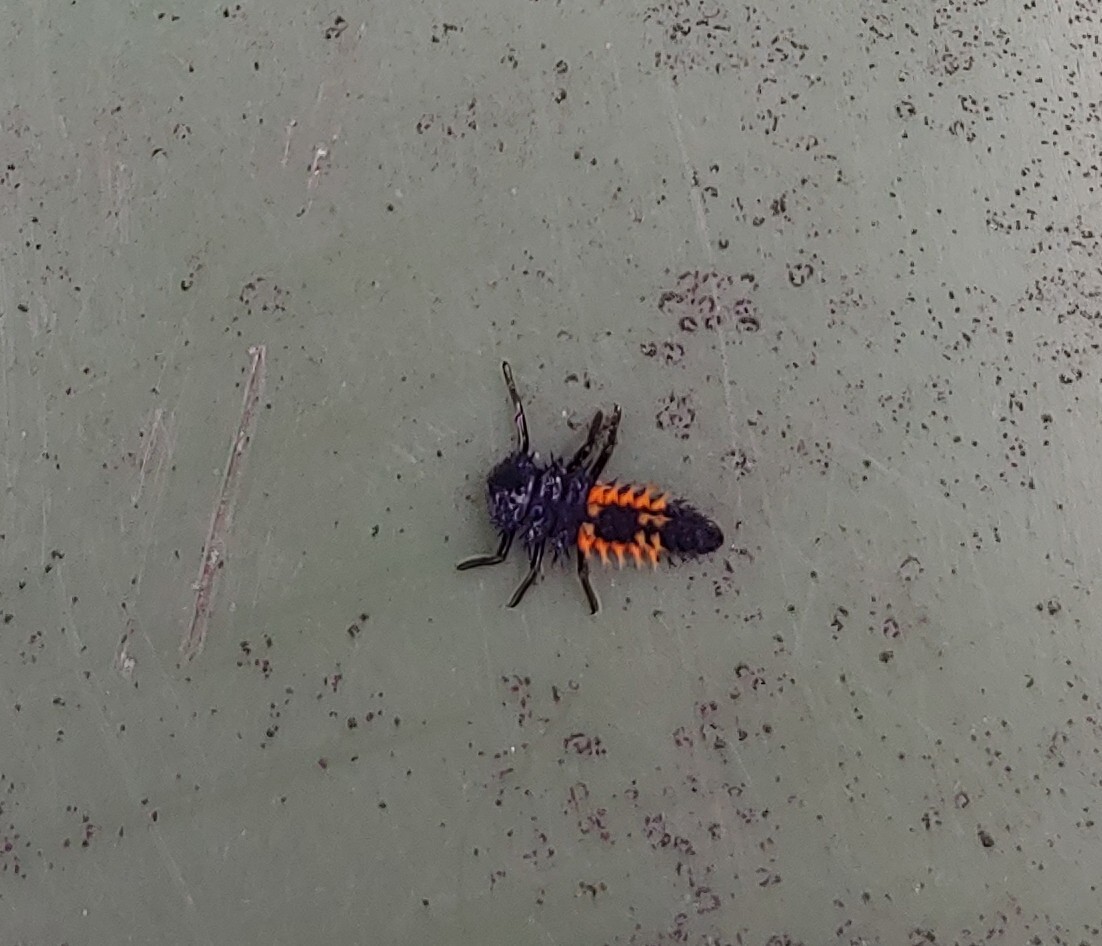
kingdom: Animalia
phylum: Arthropoda
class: Insecta
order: Coleoptera
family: Coccinellidae
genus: Harmonia
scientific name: Harmonia axyridis
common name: Harlequin ladybird
